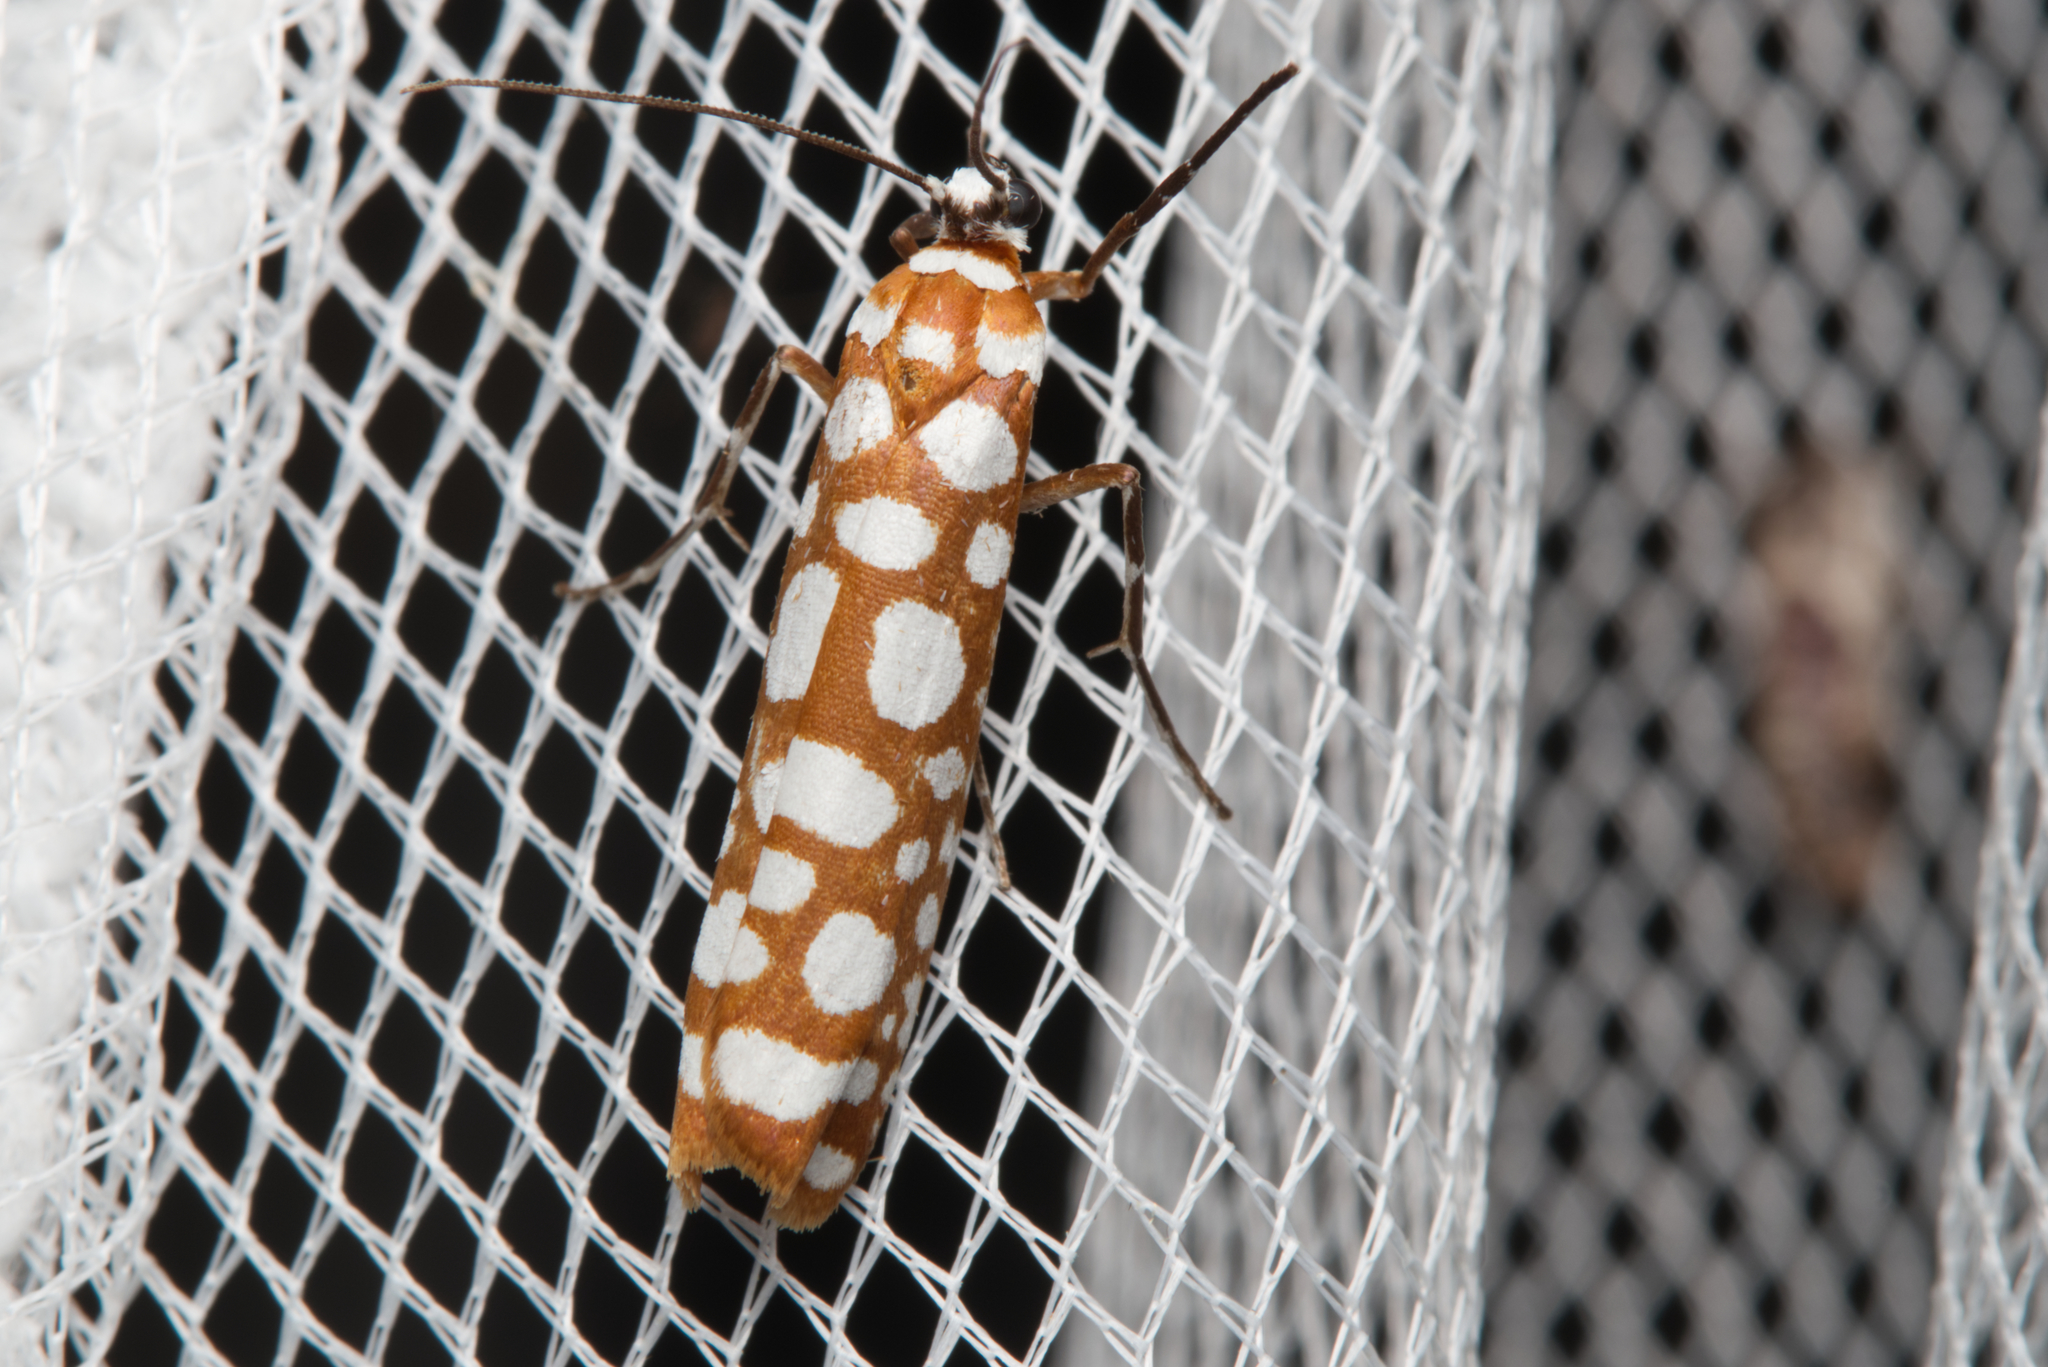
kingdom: Animalia
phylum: Arthropoda
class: Insecta
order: Lepidoptera
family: Attevidae
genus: Atteva
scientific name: Atteva niphocosma
